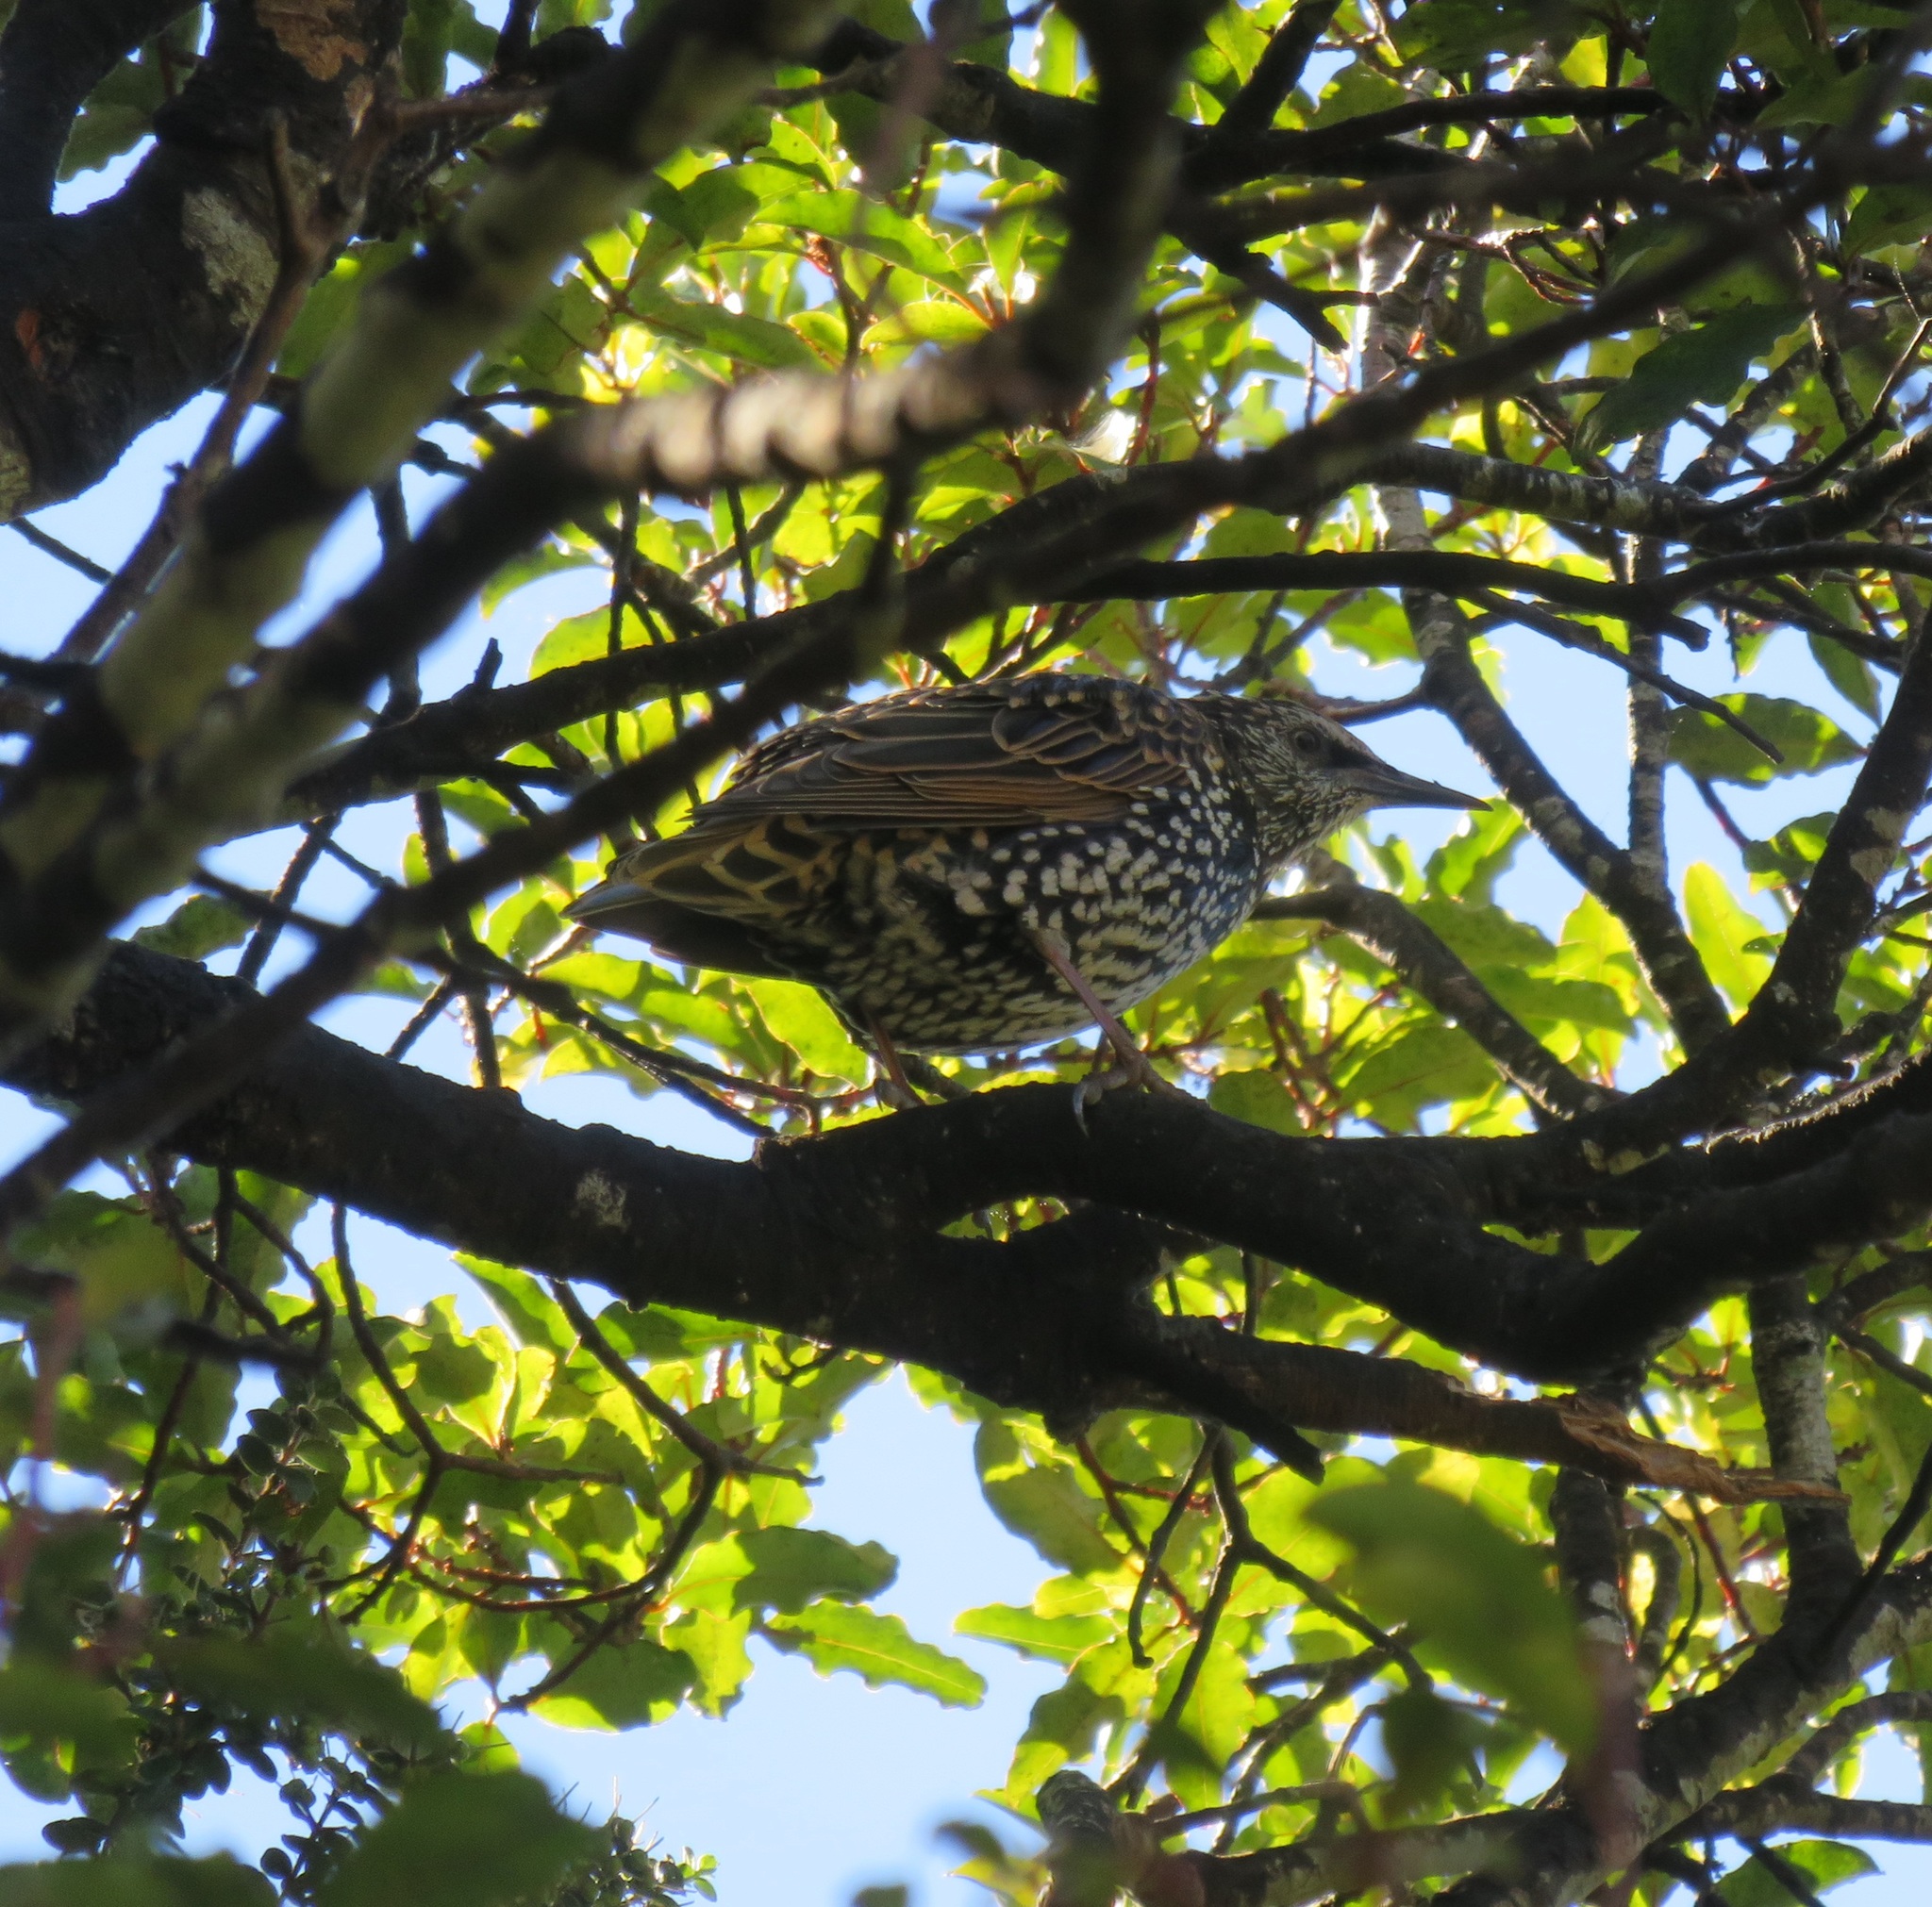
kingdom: Animalia
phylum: Chordata
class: Aves
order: Passeriformes
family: Sturnidae
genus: Sturnus
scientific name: Sturnus vulgaris
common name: Common starling
